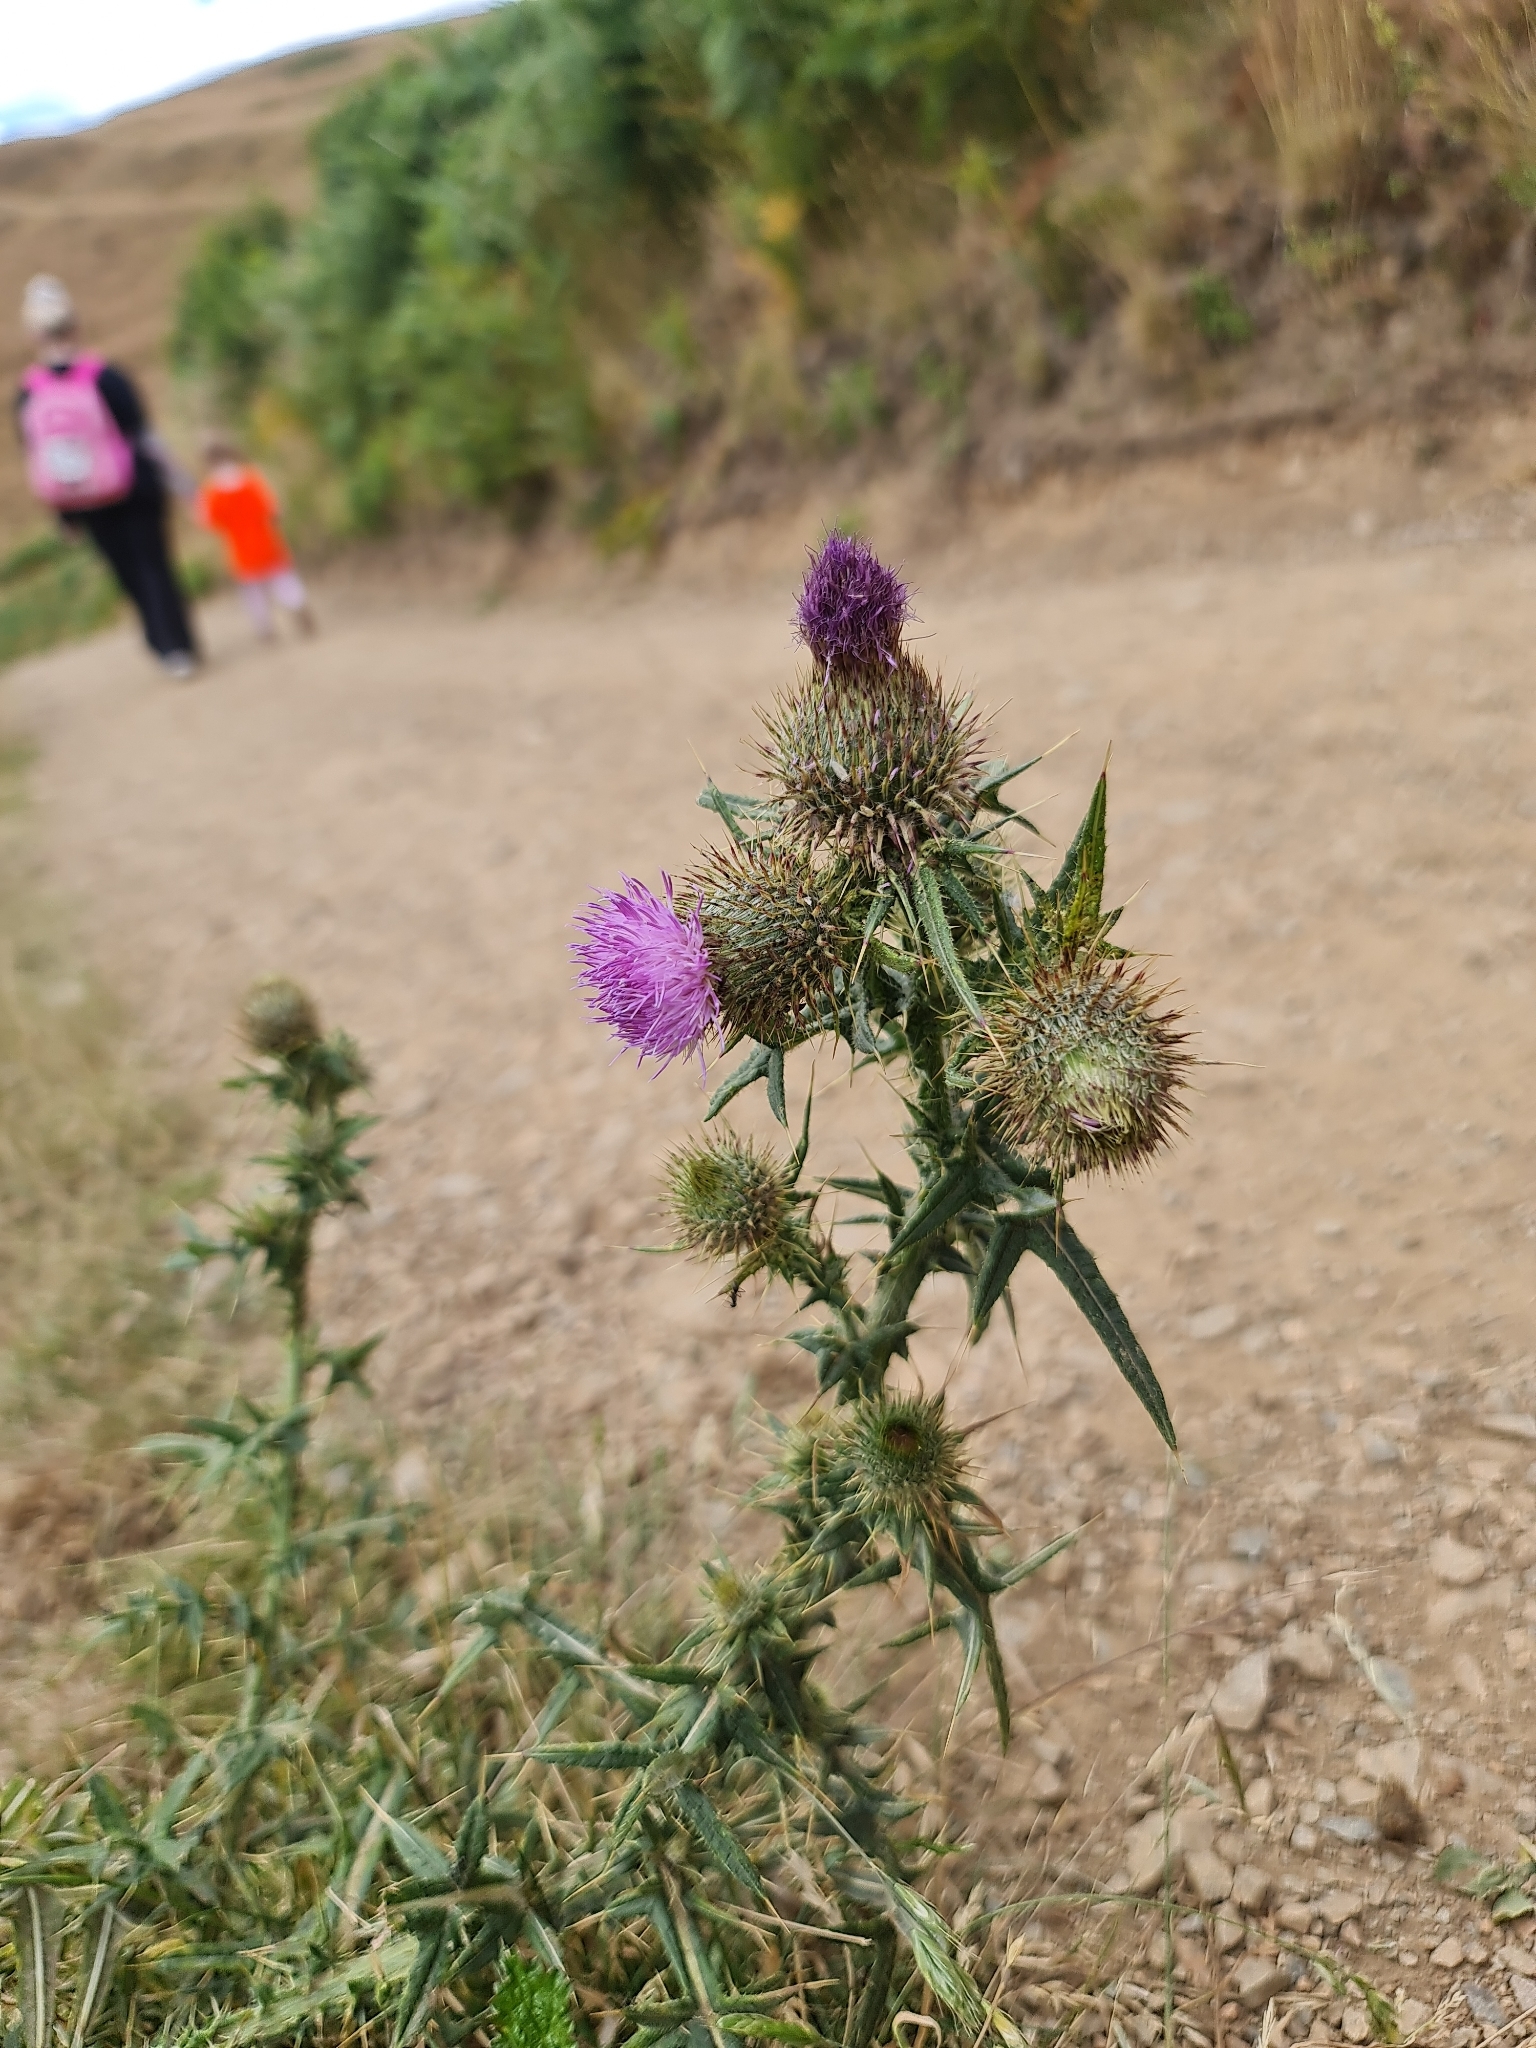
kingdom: Plantae
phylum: Tracheophyta
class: Magnoliopsida
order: Asterales
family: Asteraceae
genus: Cirsium
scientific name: Cirsium vulgare
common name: Bull thistle
